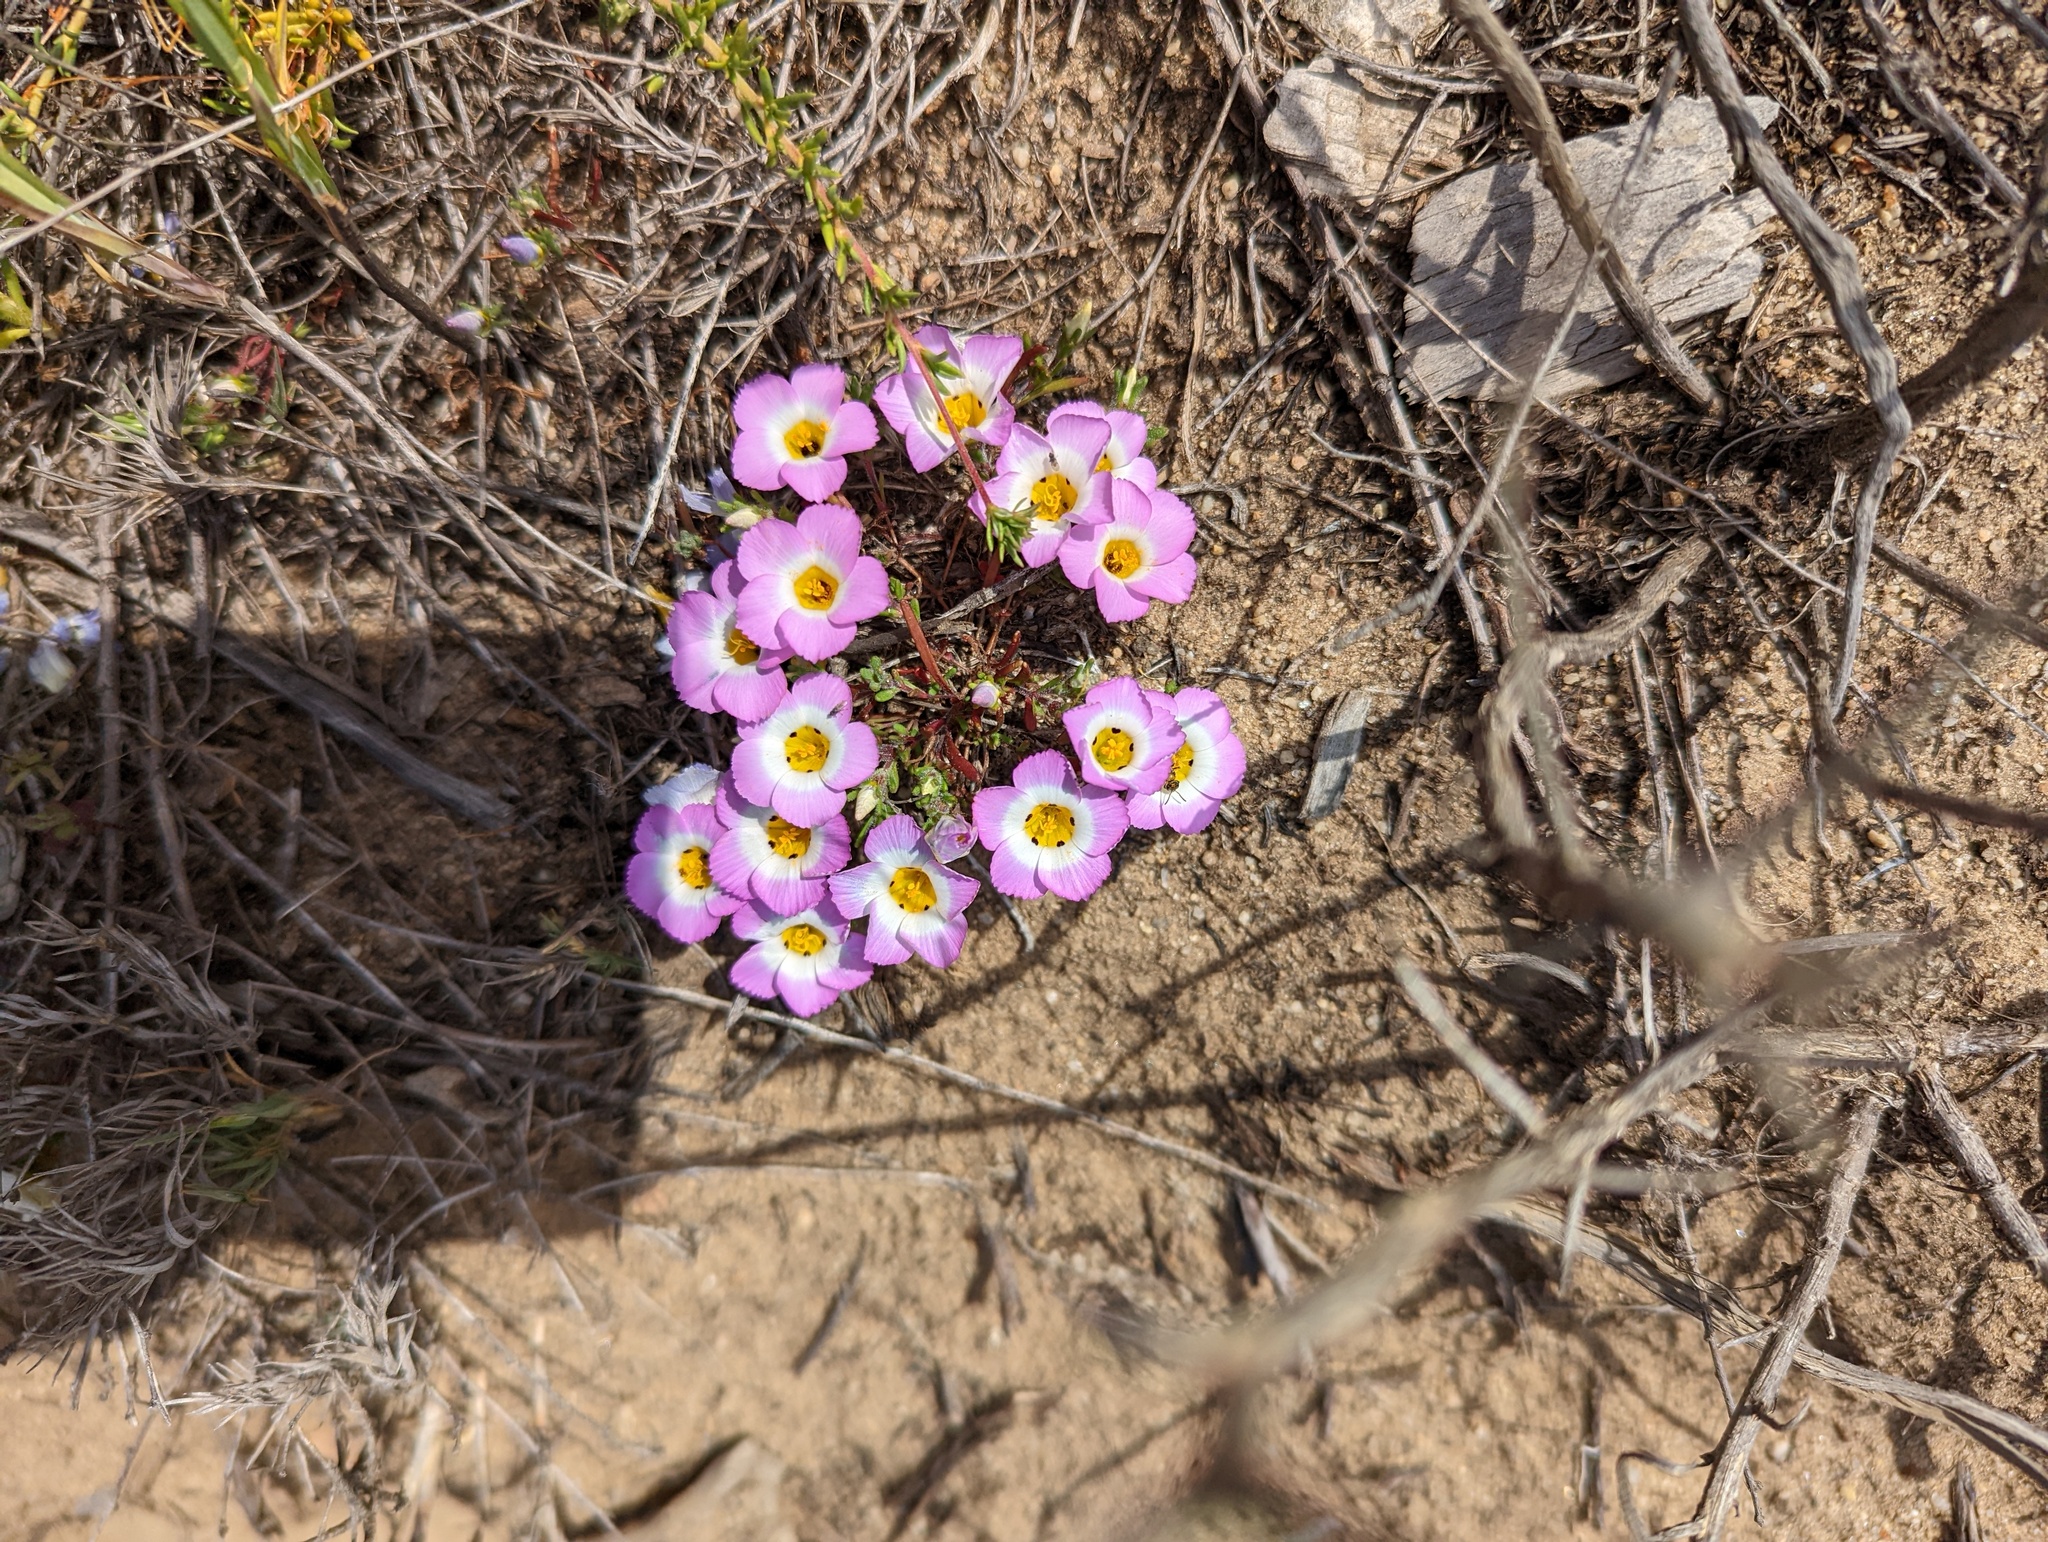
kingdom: Plantae
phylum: Tracheophyta
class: Magnoliopsida
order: Ericales
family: Polemoniaceae
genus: Linanthus
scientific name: Linanthus dianthiflorus
